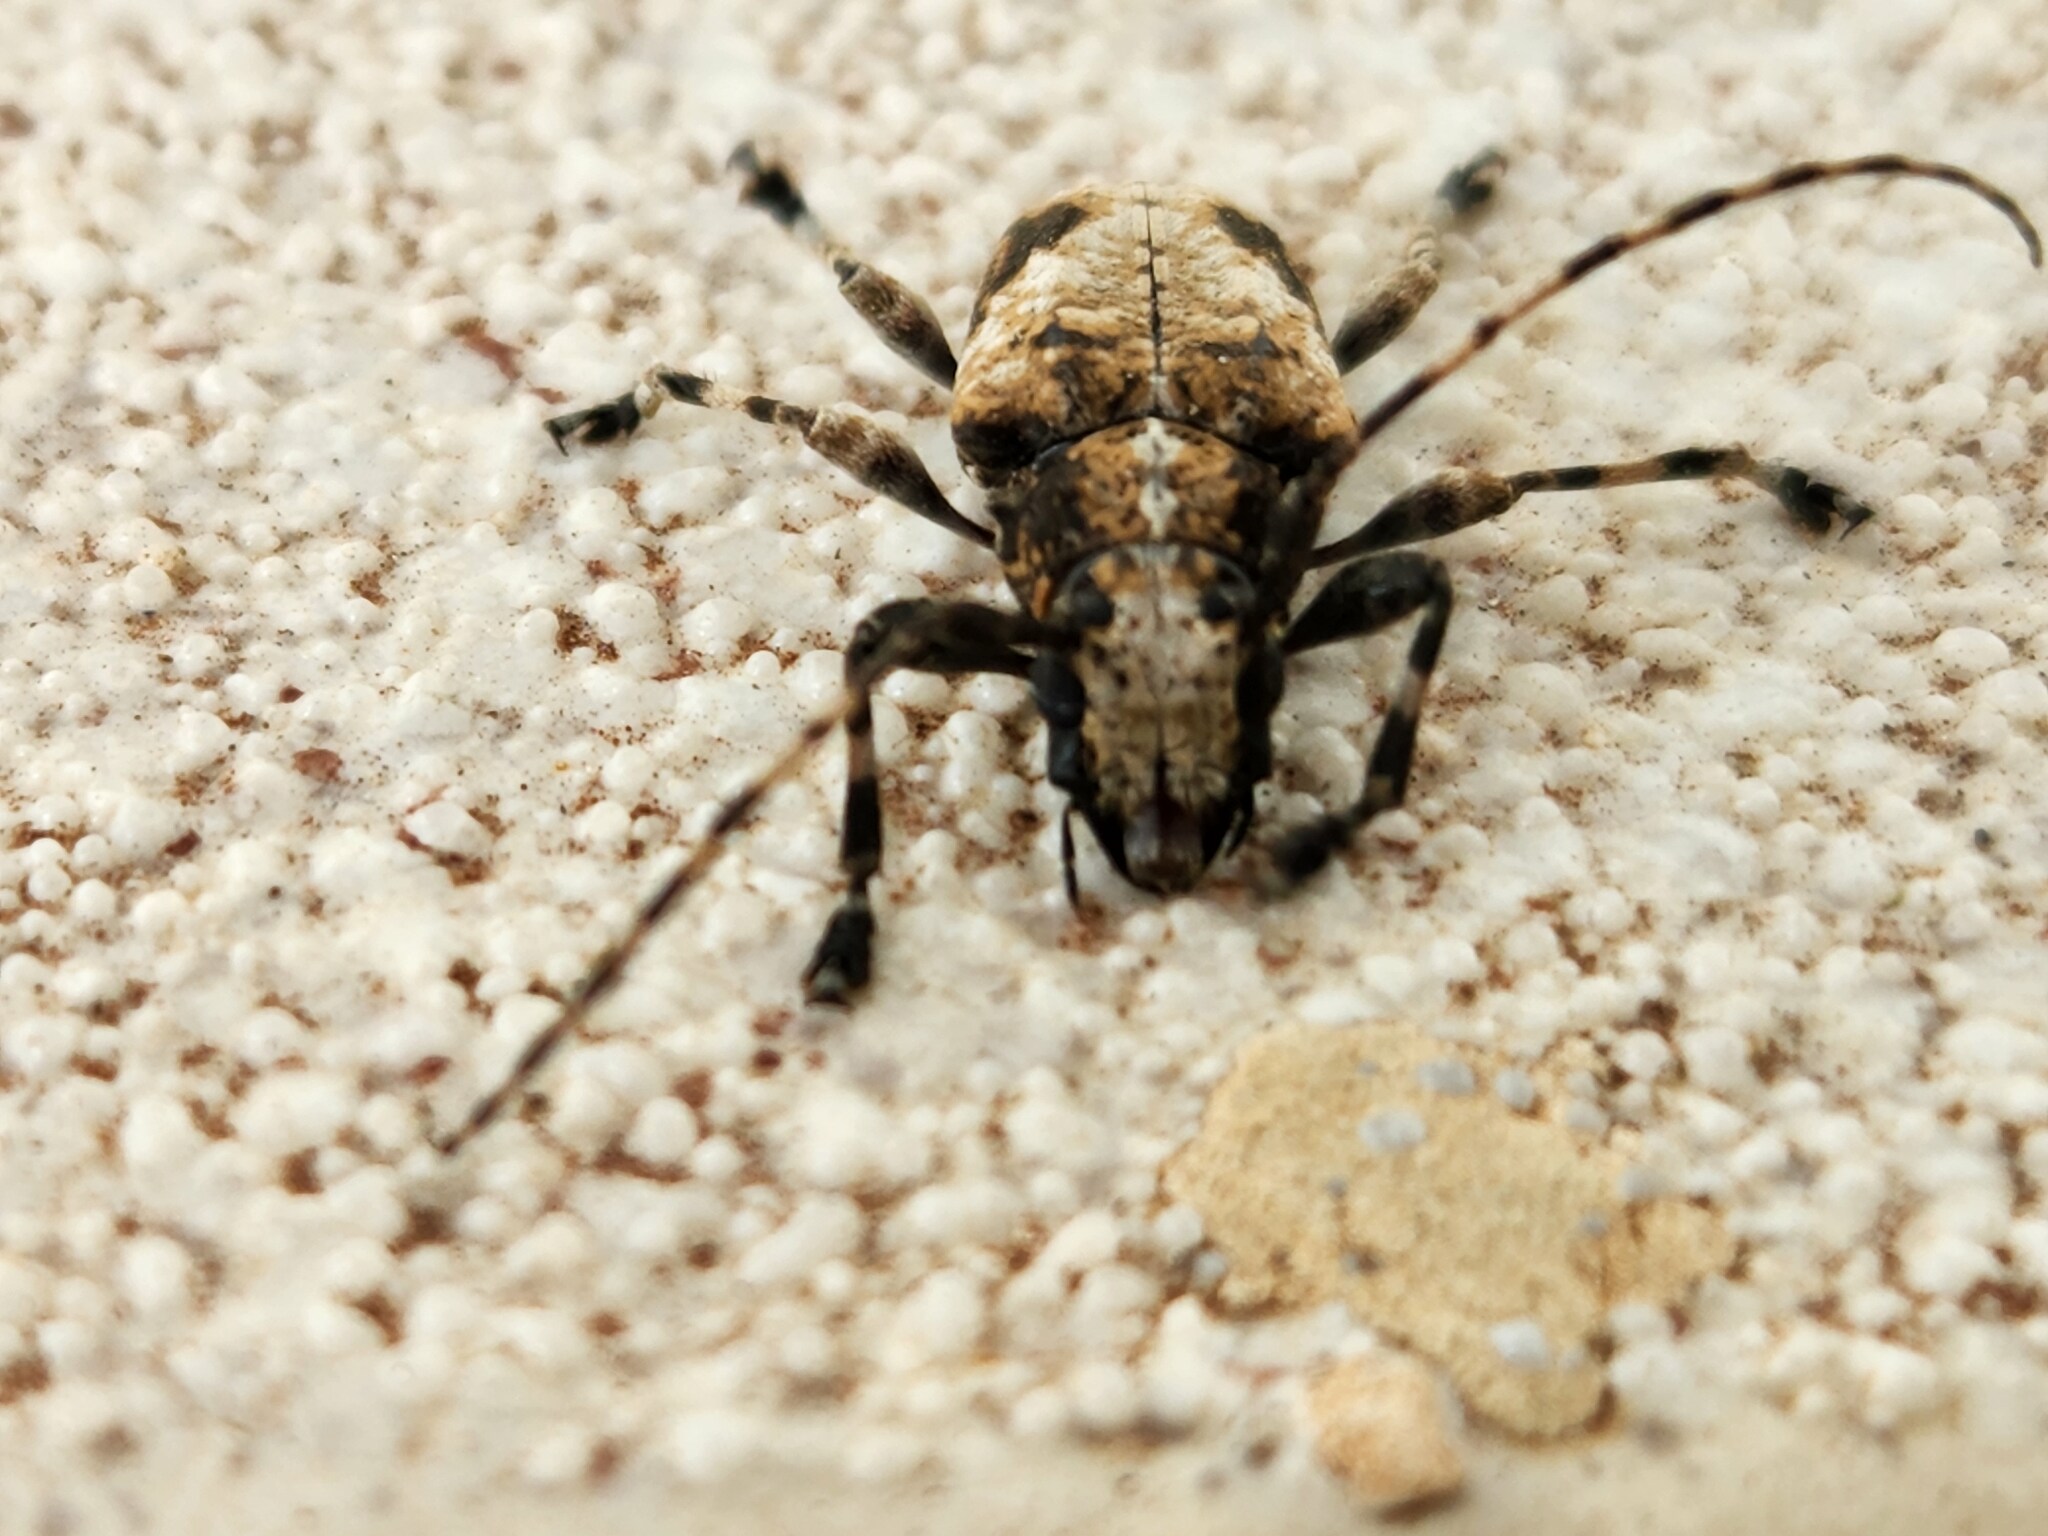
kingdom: Animalia
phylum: Arthropoda
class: Insecta
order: Coleoptera
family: Cerambycidae
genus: Psapharochrus
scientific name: Psapharochrus jaspideus
